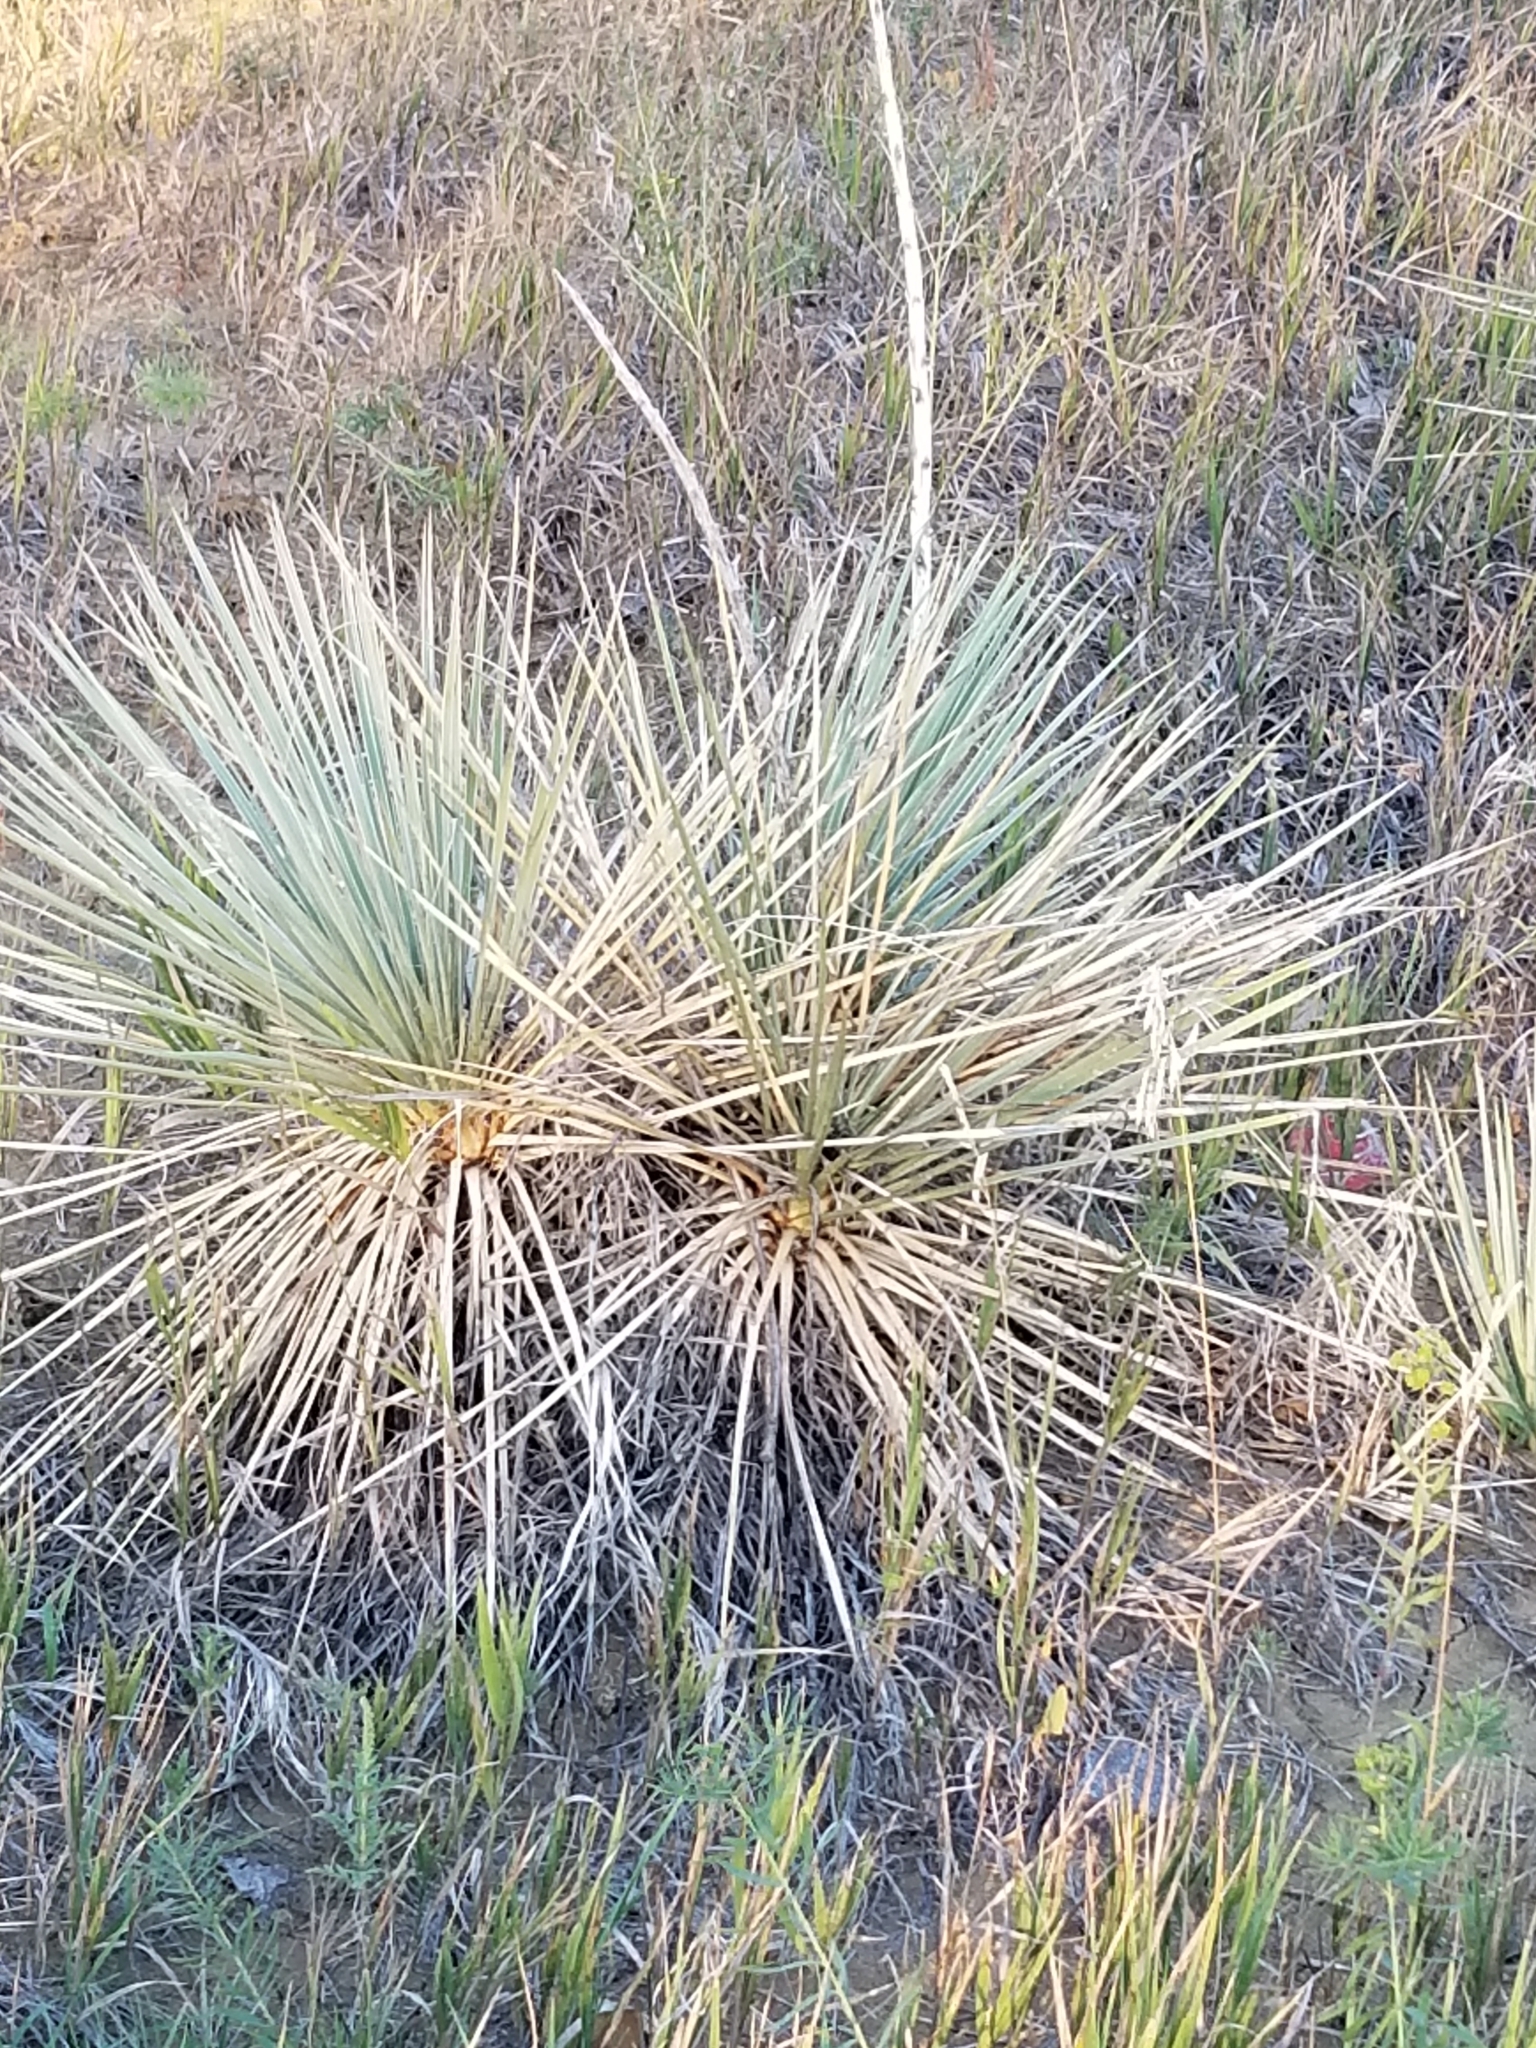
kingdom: Plantae
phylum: Tracheophyta
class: Liliopsida
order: Asparagales
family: Asparagaceae
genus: Yucca
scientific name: Yucca glauca
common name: Great plains yucca
